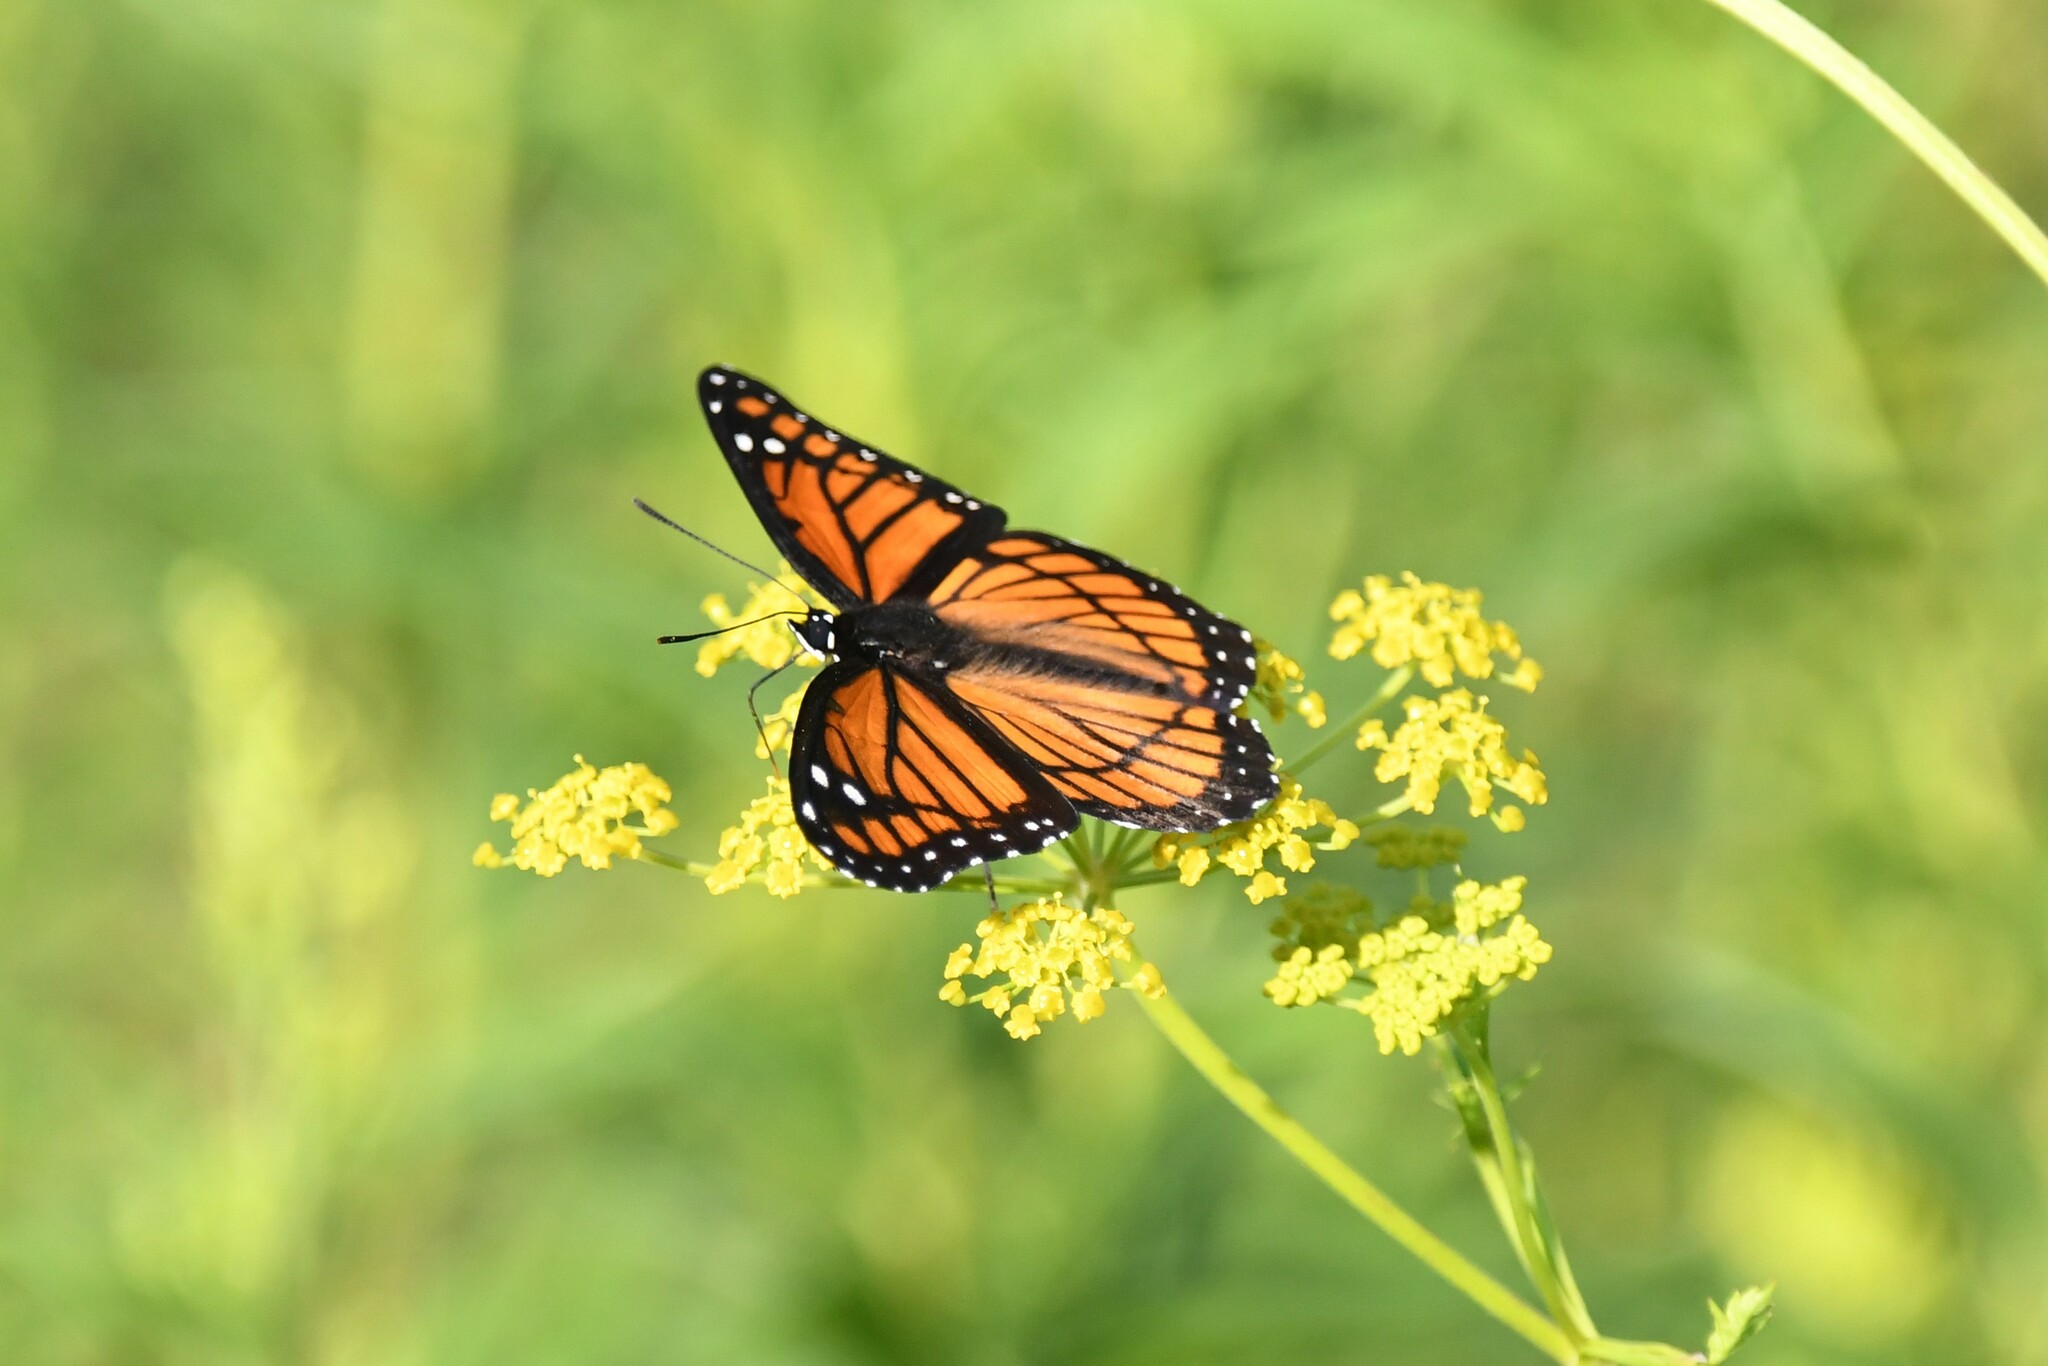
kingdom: Animalia
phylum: Arthropoda
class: Insecta
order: Lepidoptera
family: Nymphalidae
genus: Limenitis
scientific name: Limenitis archippus
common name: Viceroy
